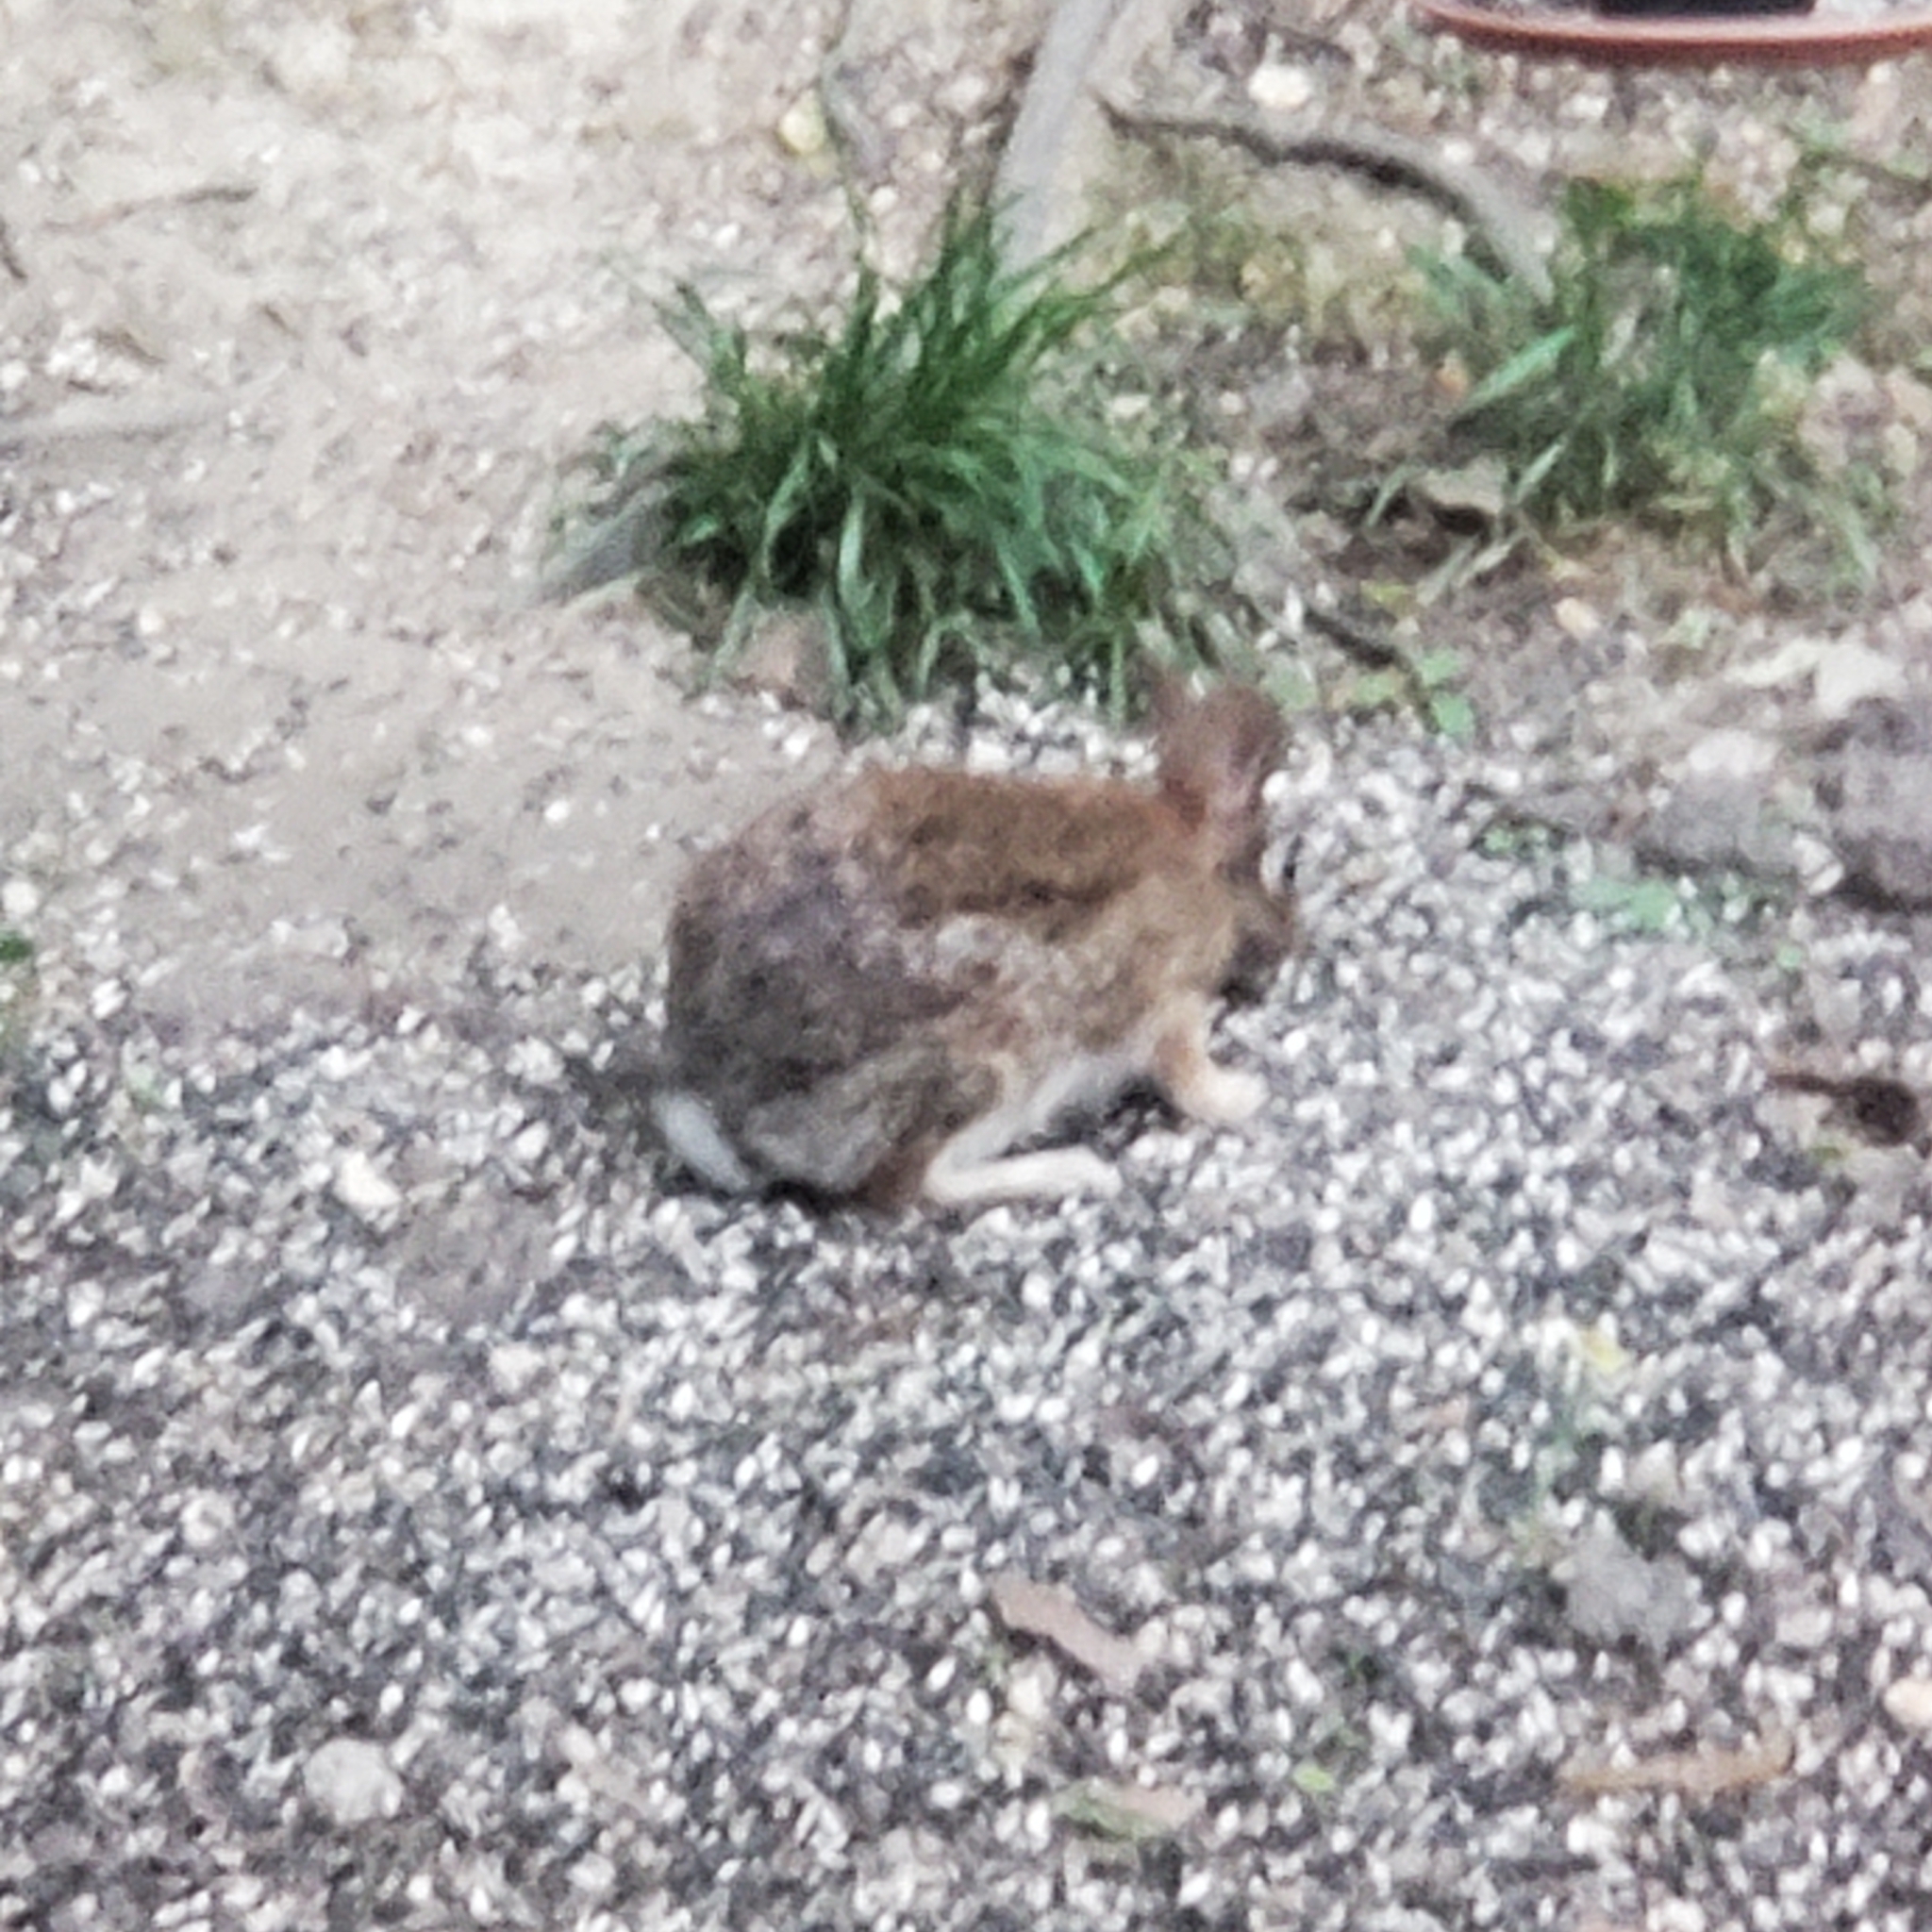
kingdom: Animalia
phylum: Chordata
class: Mammalia
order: Lagomorpha
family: Leporidae
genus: Sylvilagus
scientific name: Sylvilagus floridanus
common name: Eastern cottontail
